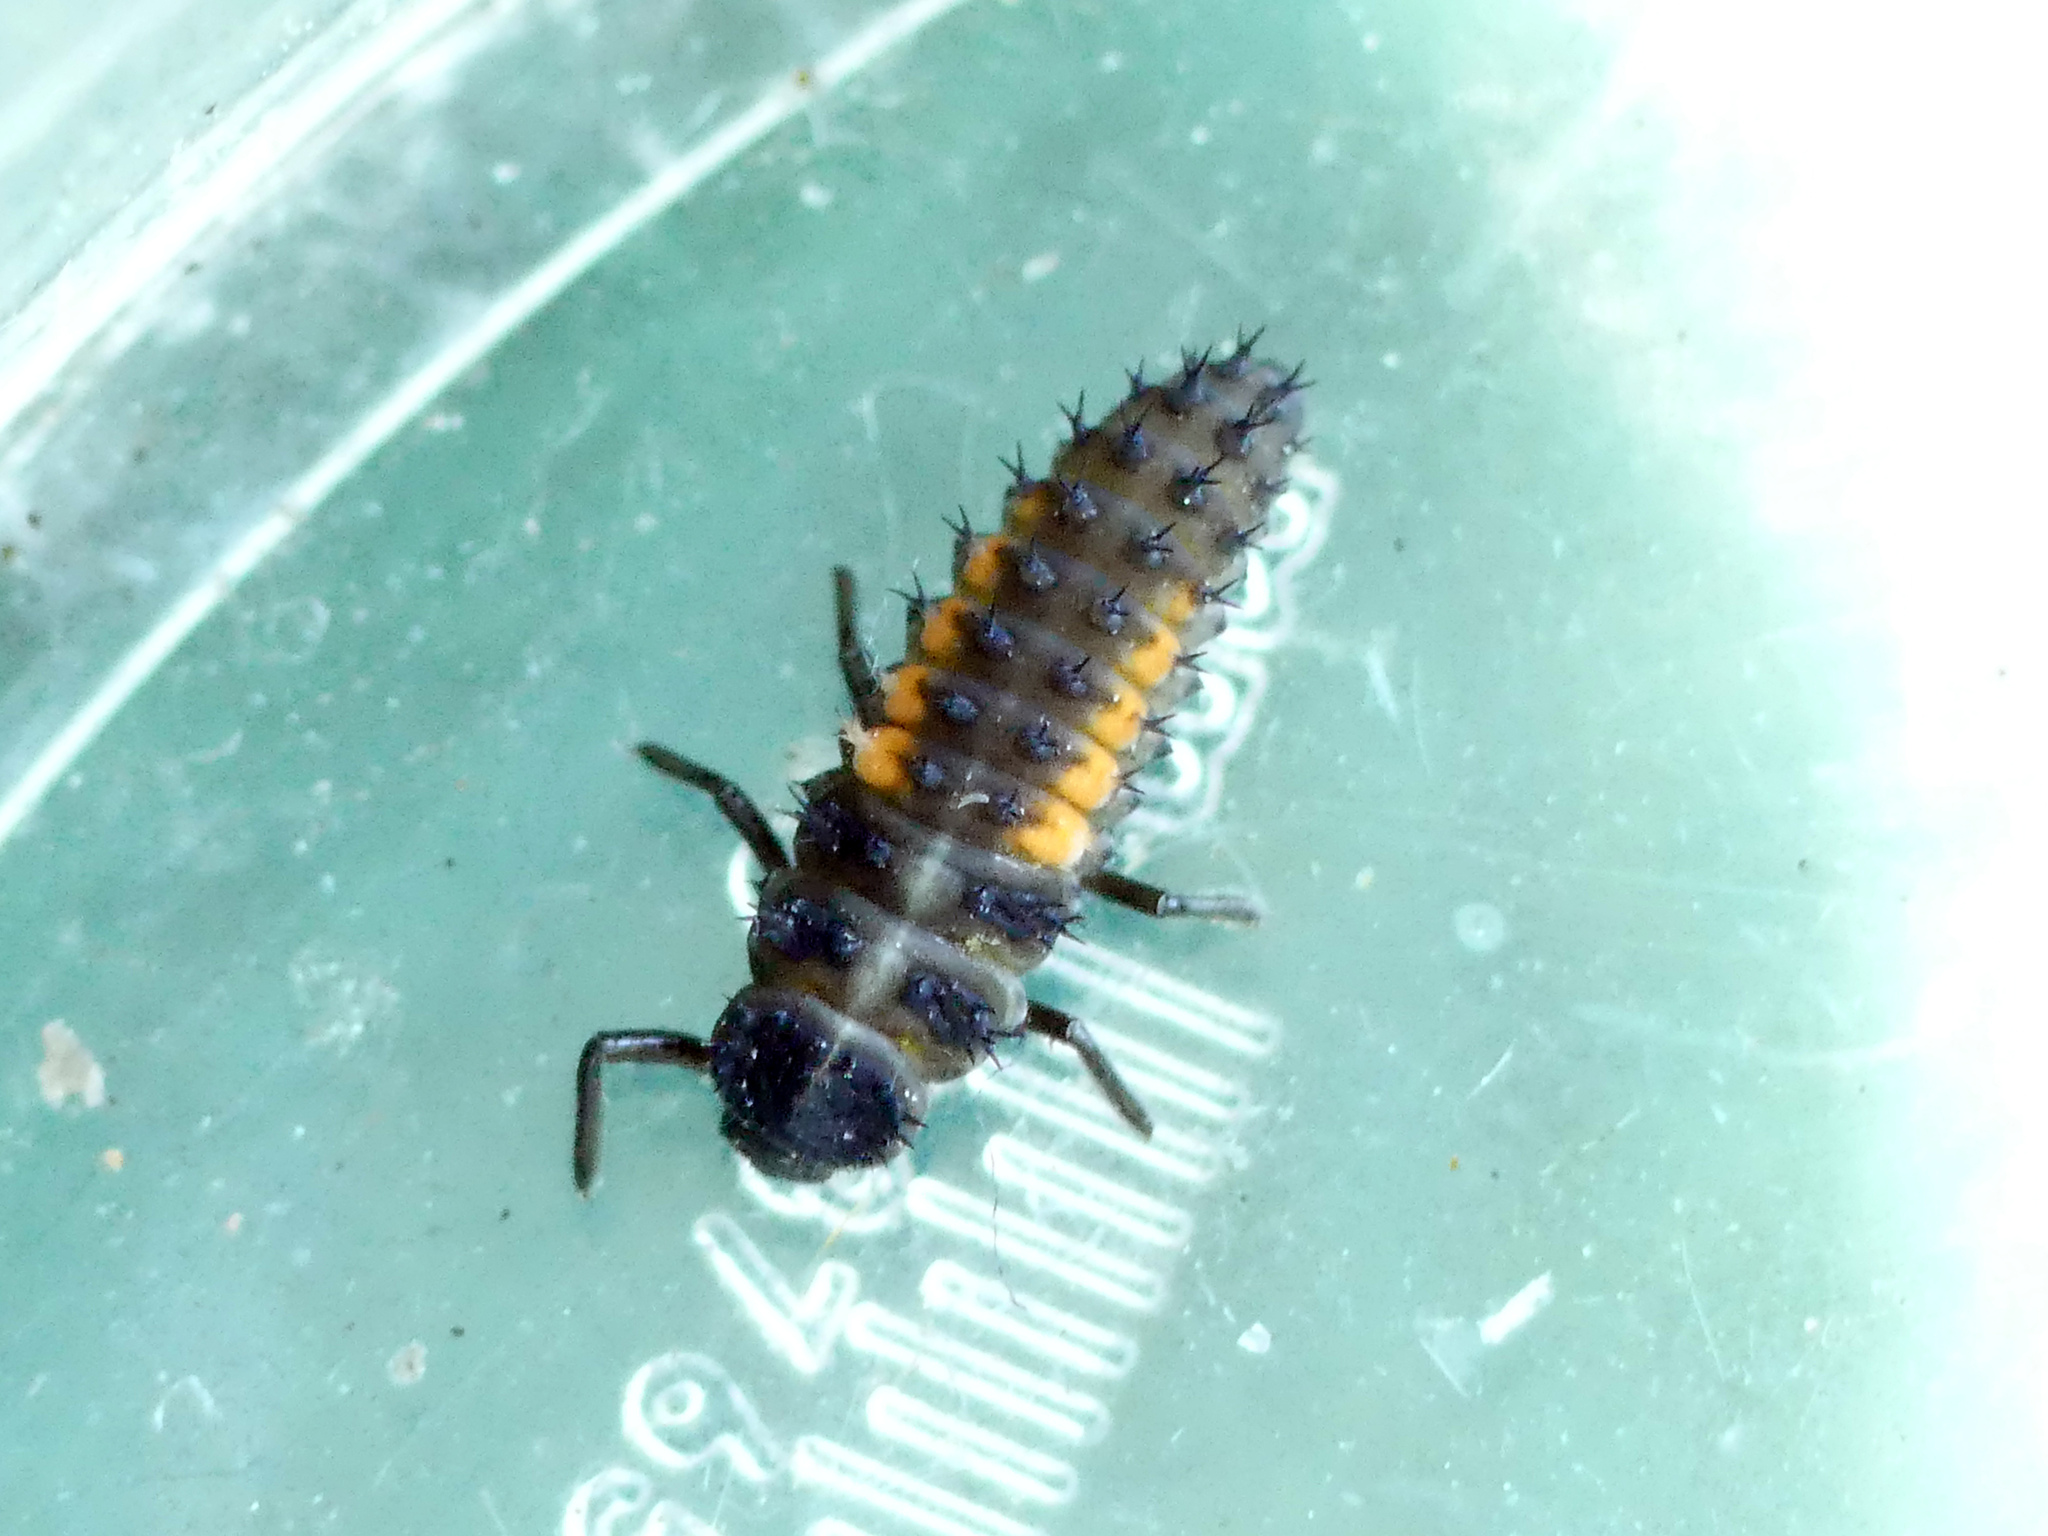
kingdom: Animalia
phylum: Arthropoda
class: Insecta
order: Coleoptera
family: Coccinellidae
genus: Harmonia
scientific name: Harmonia axyridis
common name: Harlequin ladybird
